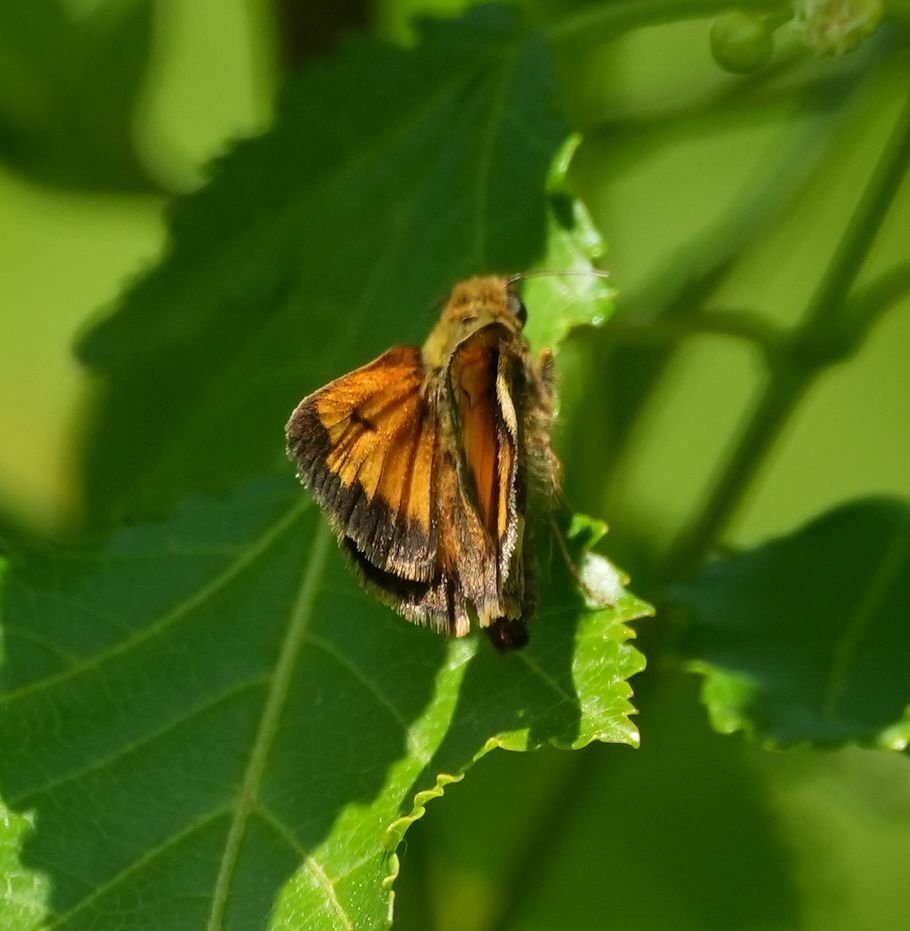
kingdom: Animalia
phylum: Arthropoda
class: Insecta
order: Lepidoptera
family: Hesperiidae
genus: Lon
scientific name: Lon hobomok
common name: Hobomok skipper
